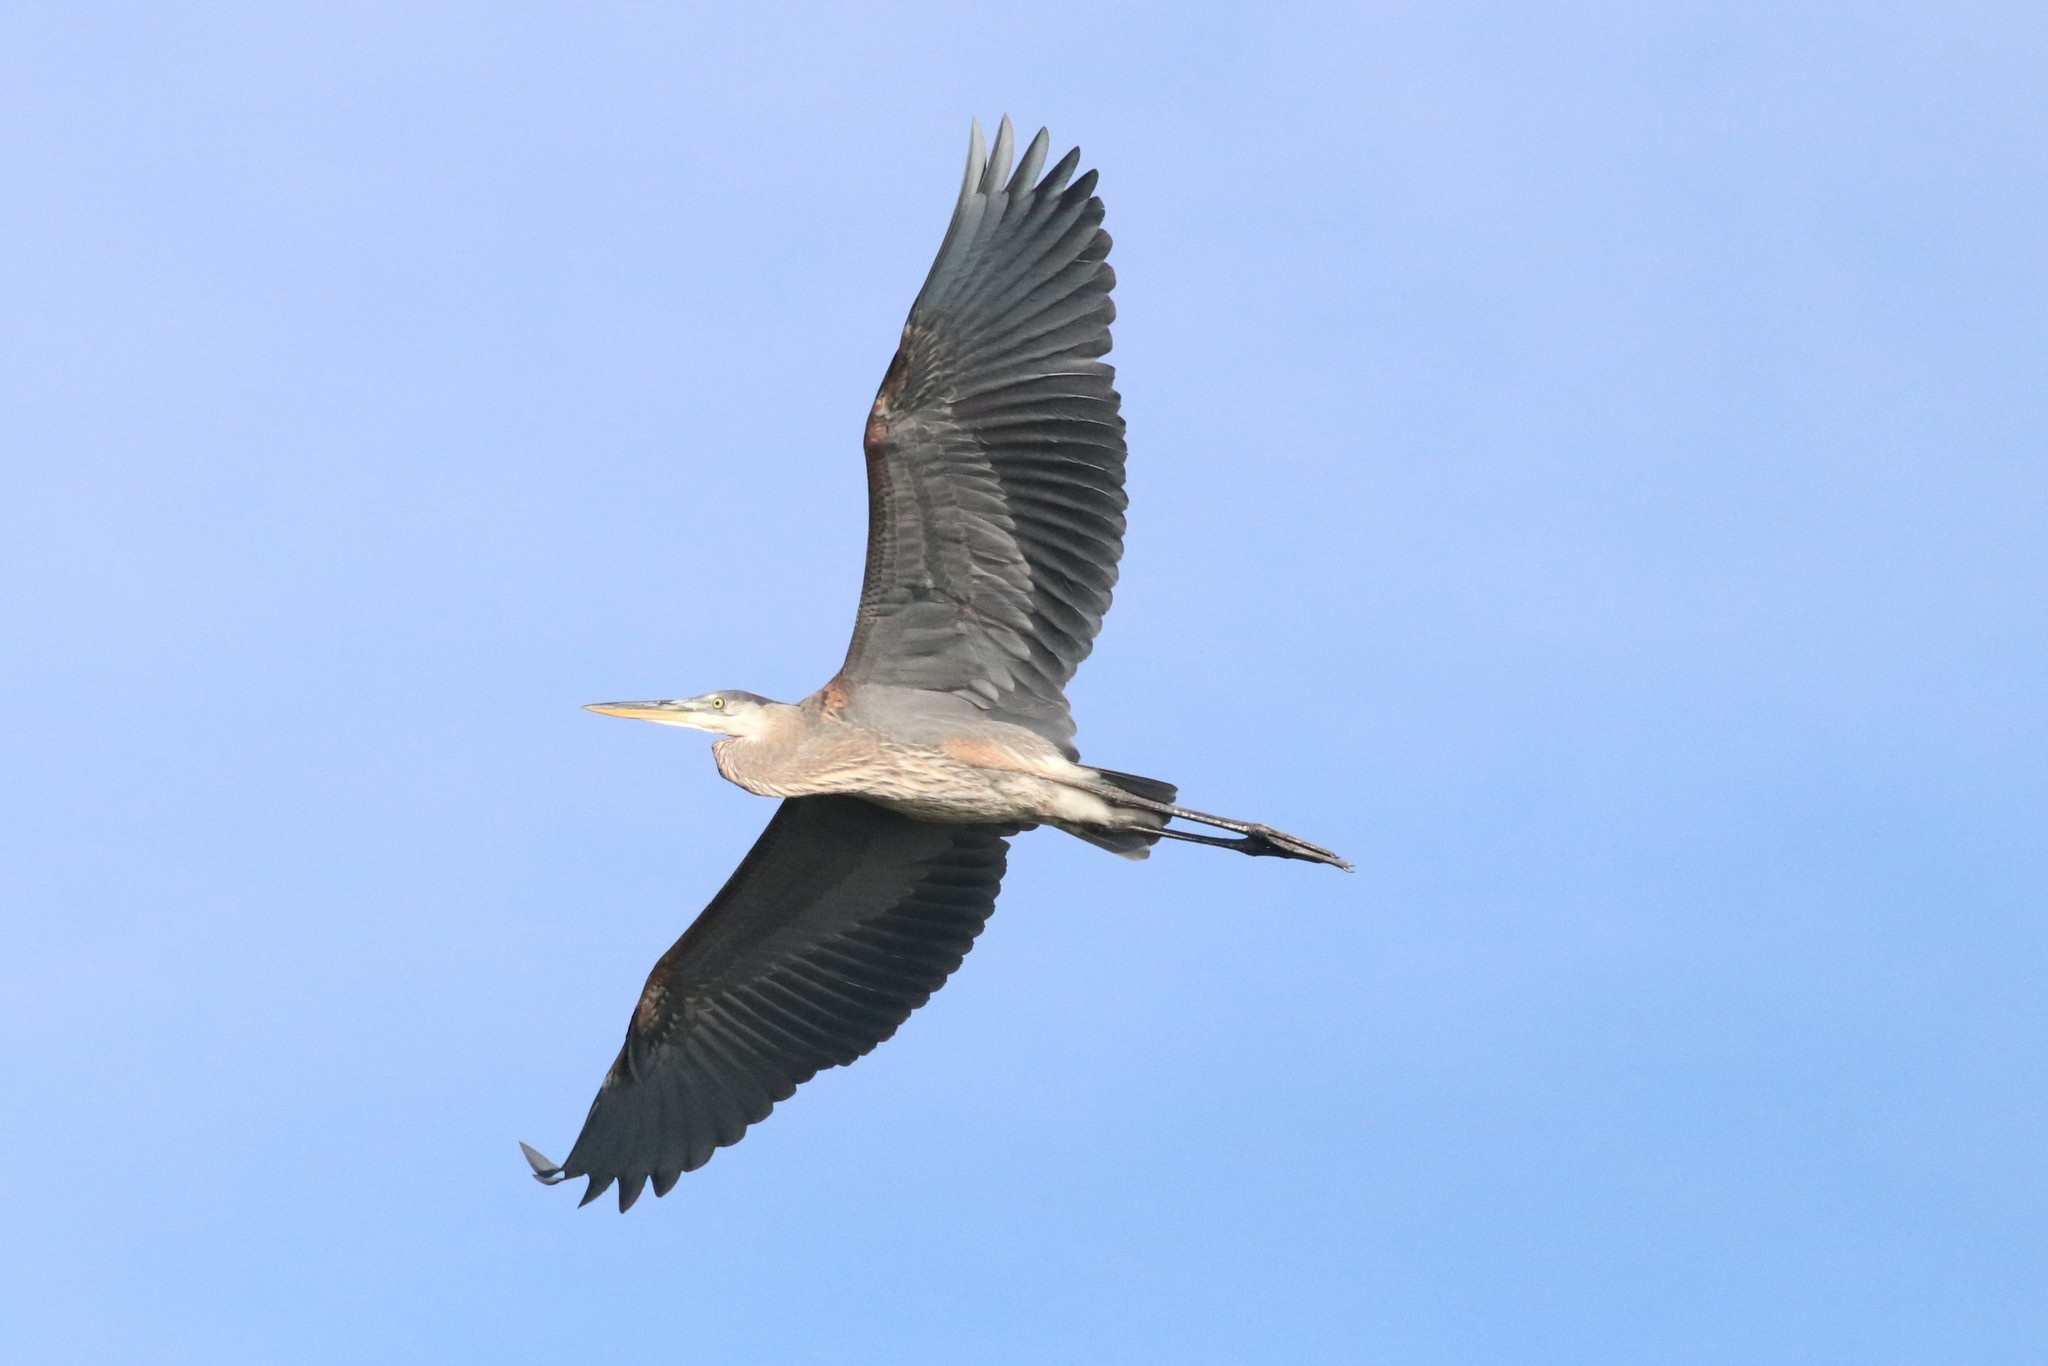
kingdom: Animalia
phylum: Chordata
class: Aves
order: Pelecaniformes
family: Ardeidae
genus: Ardea
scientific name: Ardea herodias
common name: Great blue heron
